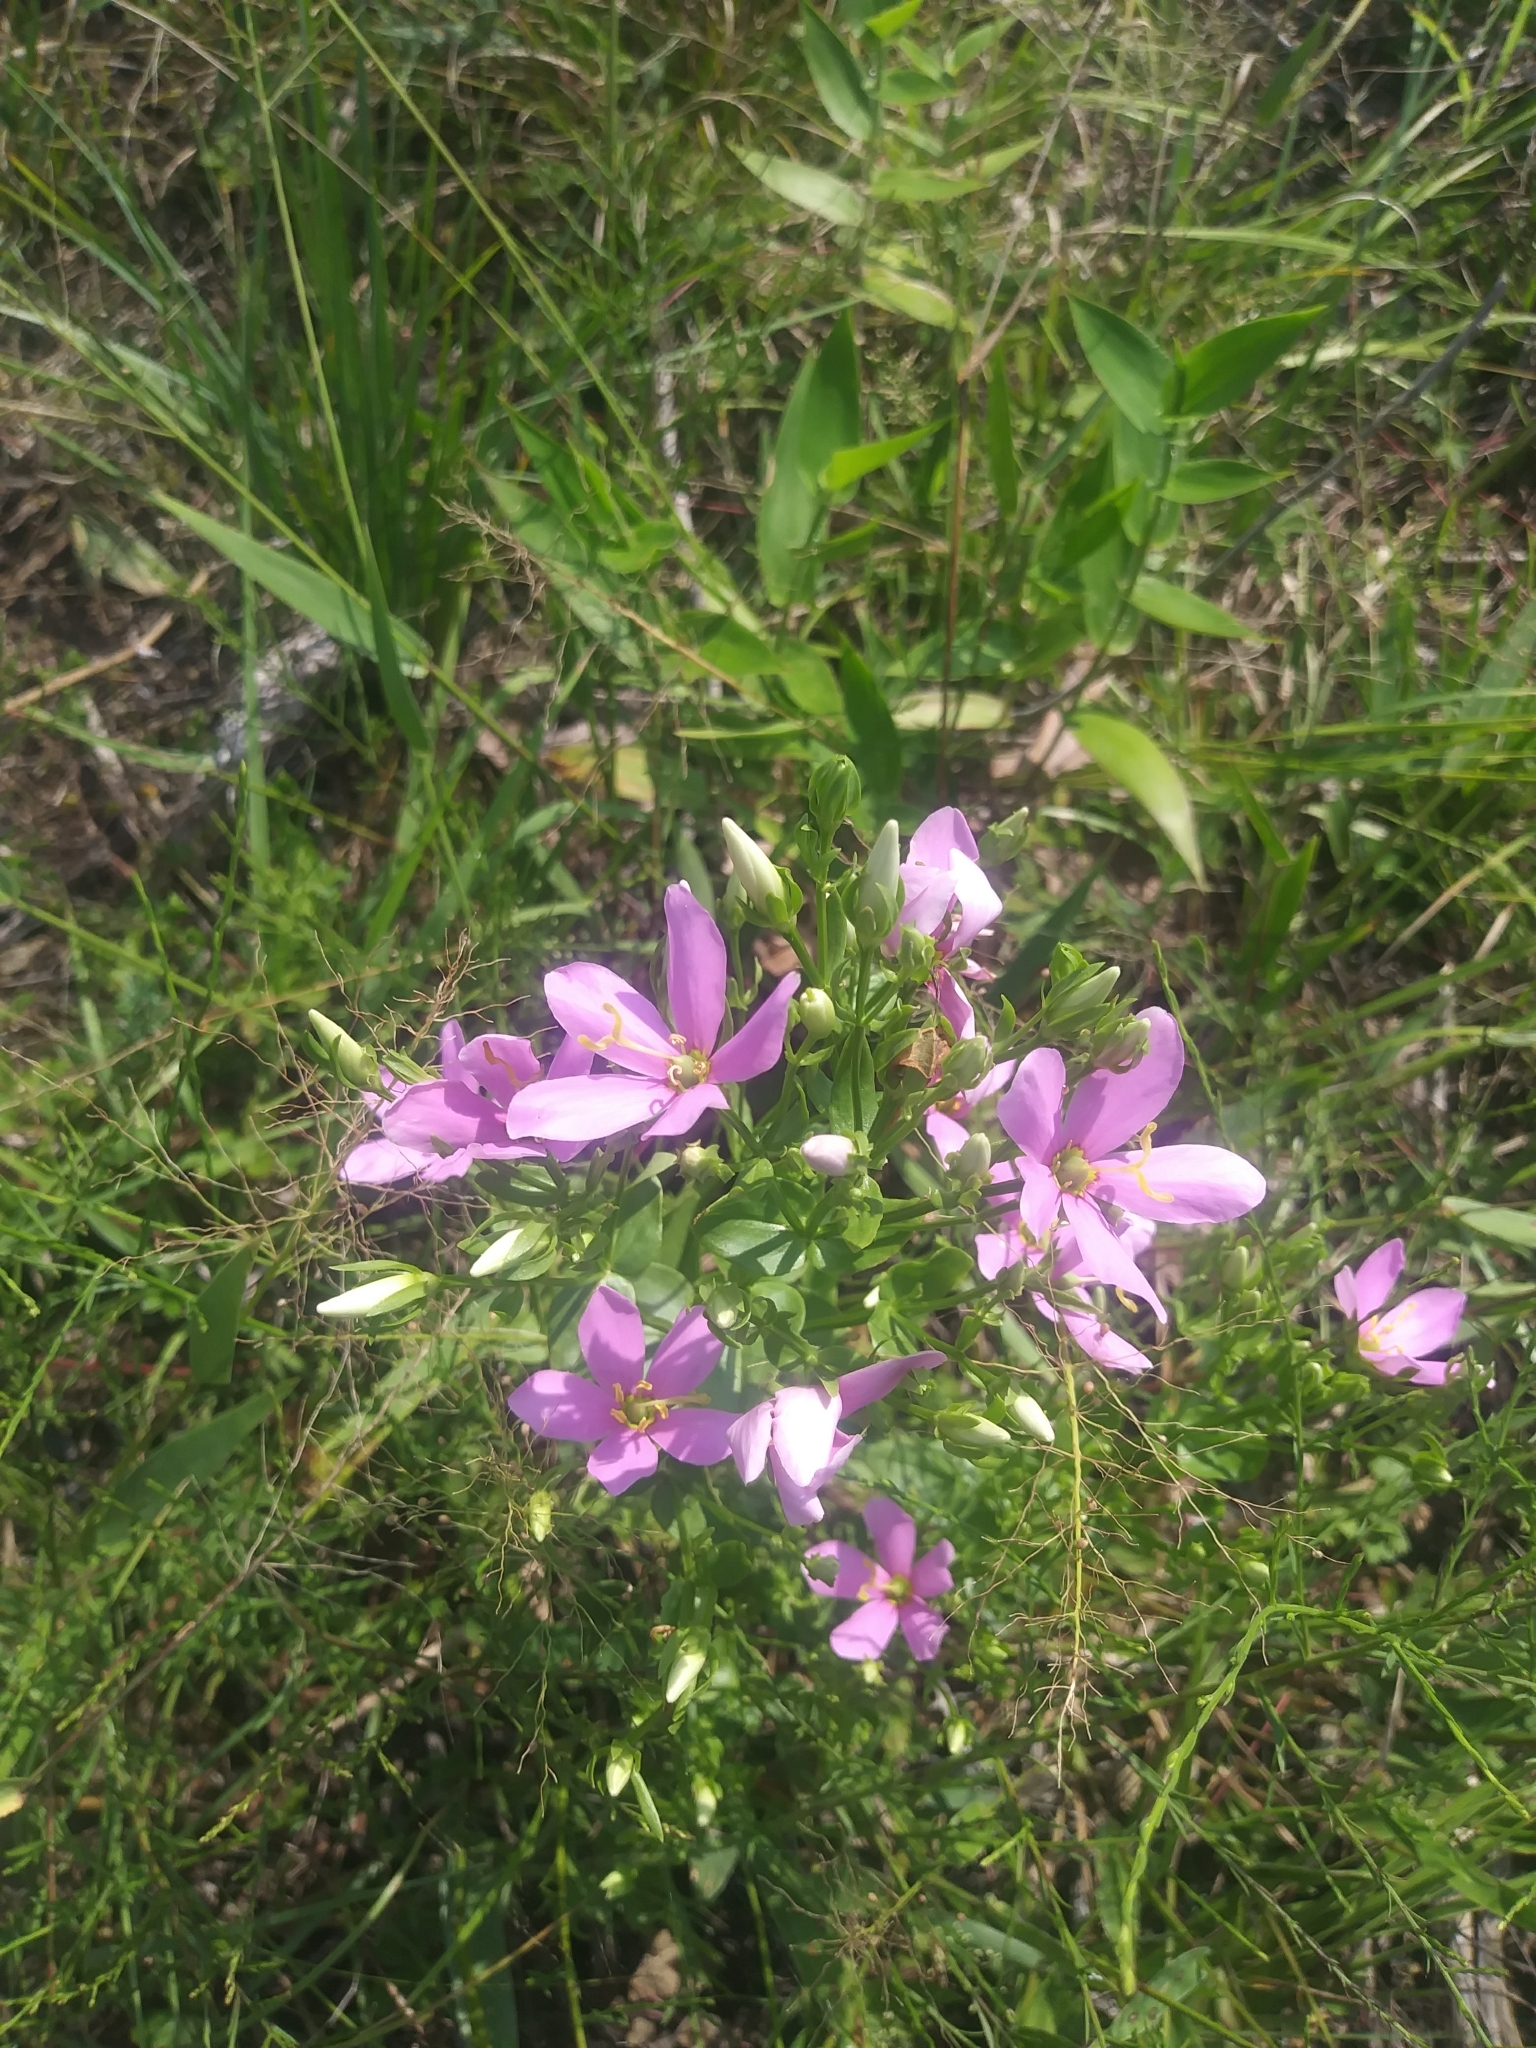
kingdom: Plantae
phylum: Tracheophyta
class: Magnoliopsida
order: Gentianales
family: Gentianaceae
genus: Sabatia
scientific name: Sabatia angularis
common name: Rose-pink
